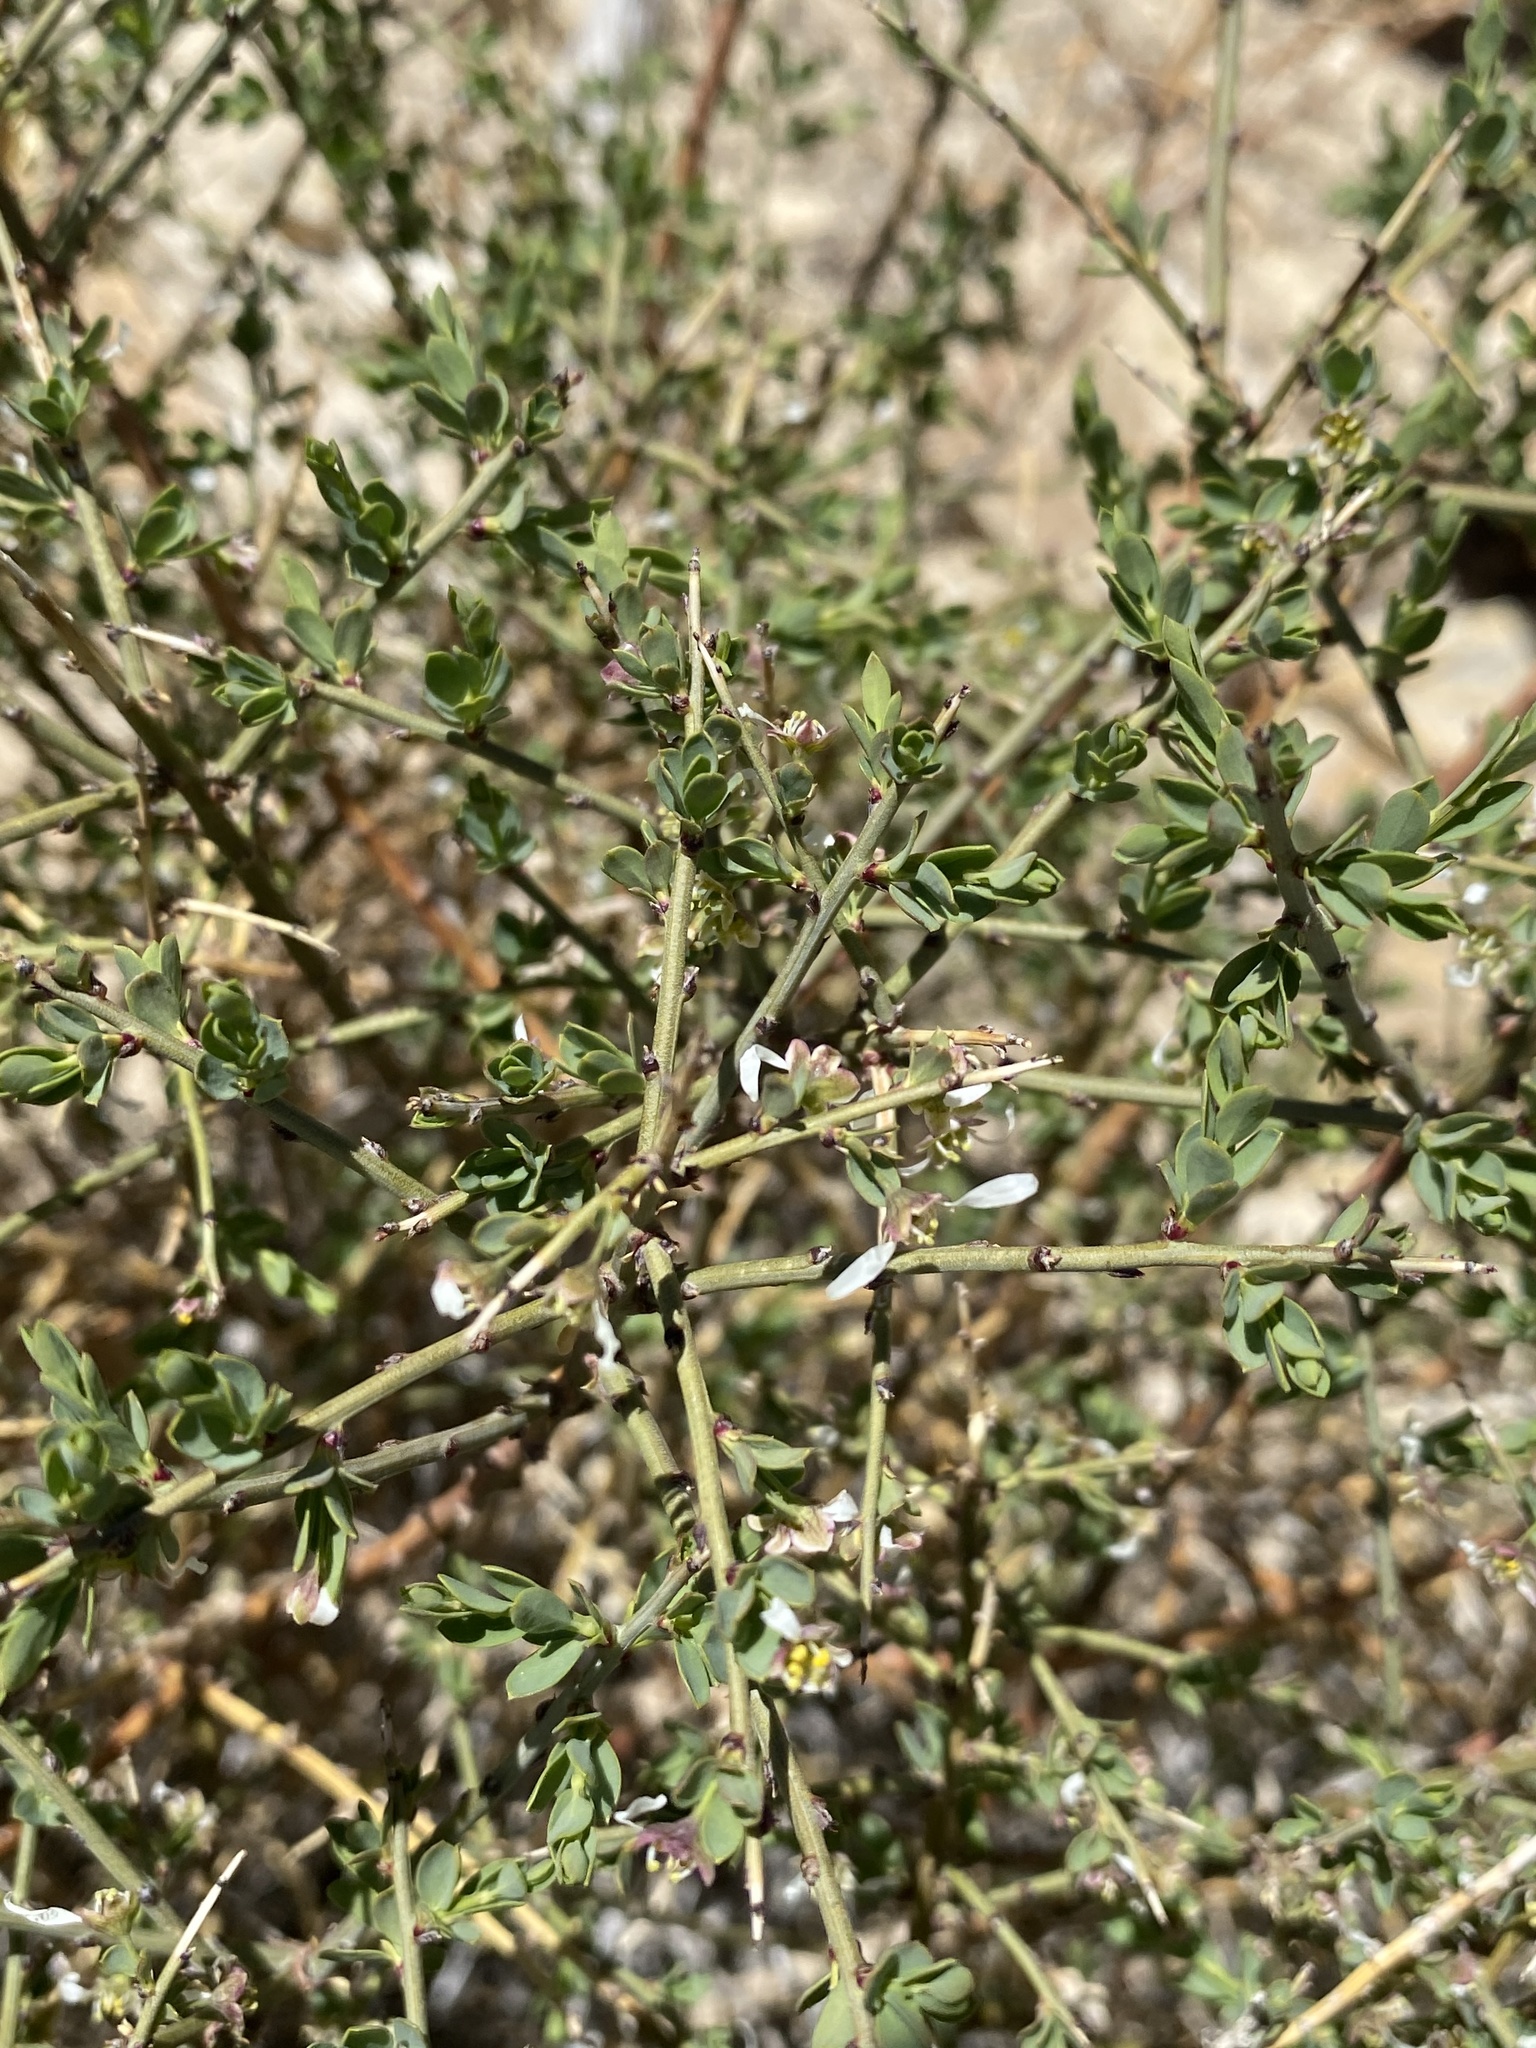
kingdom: Plantae
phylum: Tracheophyta
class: Magnoliopsida
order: Crossosomatales
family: Crossosomataceae
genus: Glossopetalon
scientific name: Glossopetalon spinescens
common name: Spring greasebush
